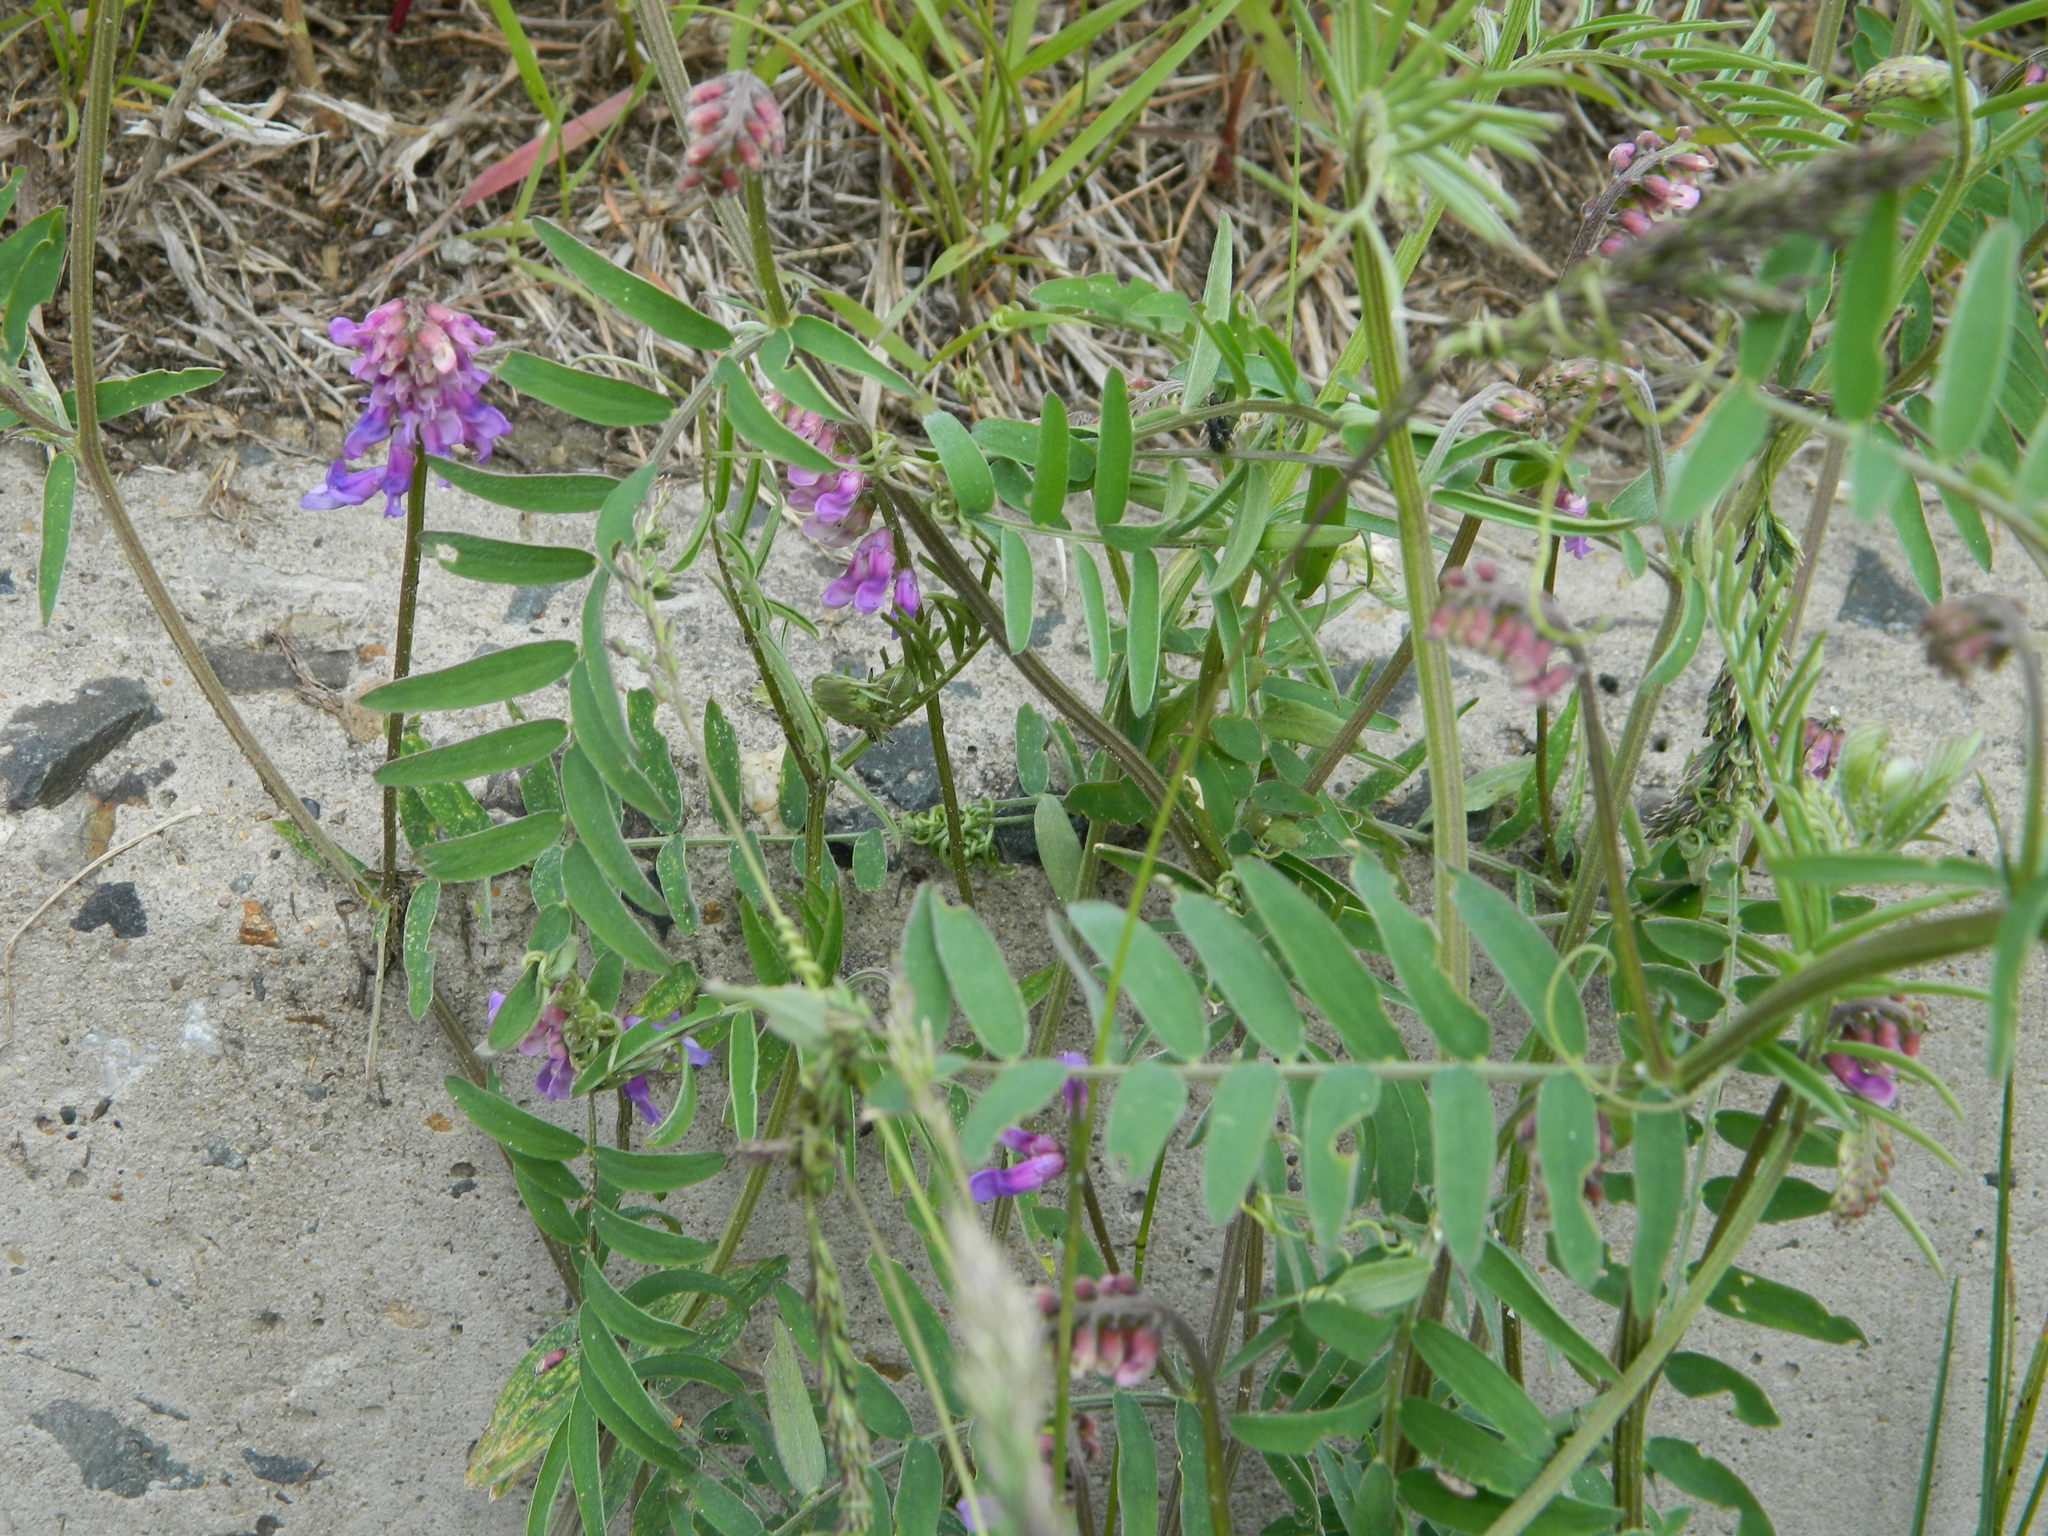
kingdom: Plantae
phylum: Tracheophyta
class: Magnoliopsida
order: Fabales
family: Fabaceae
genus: Vicia
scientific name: Vicia cracca
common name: Bird vetch
